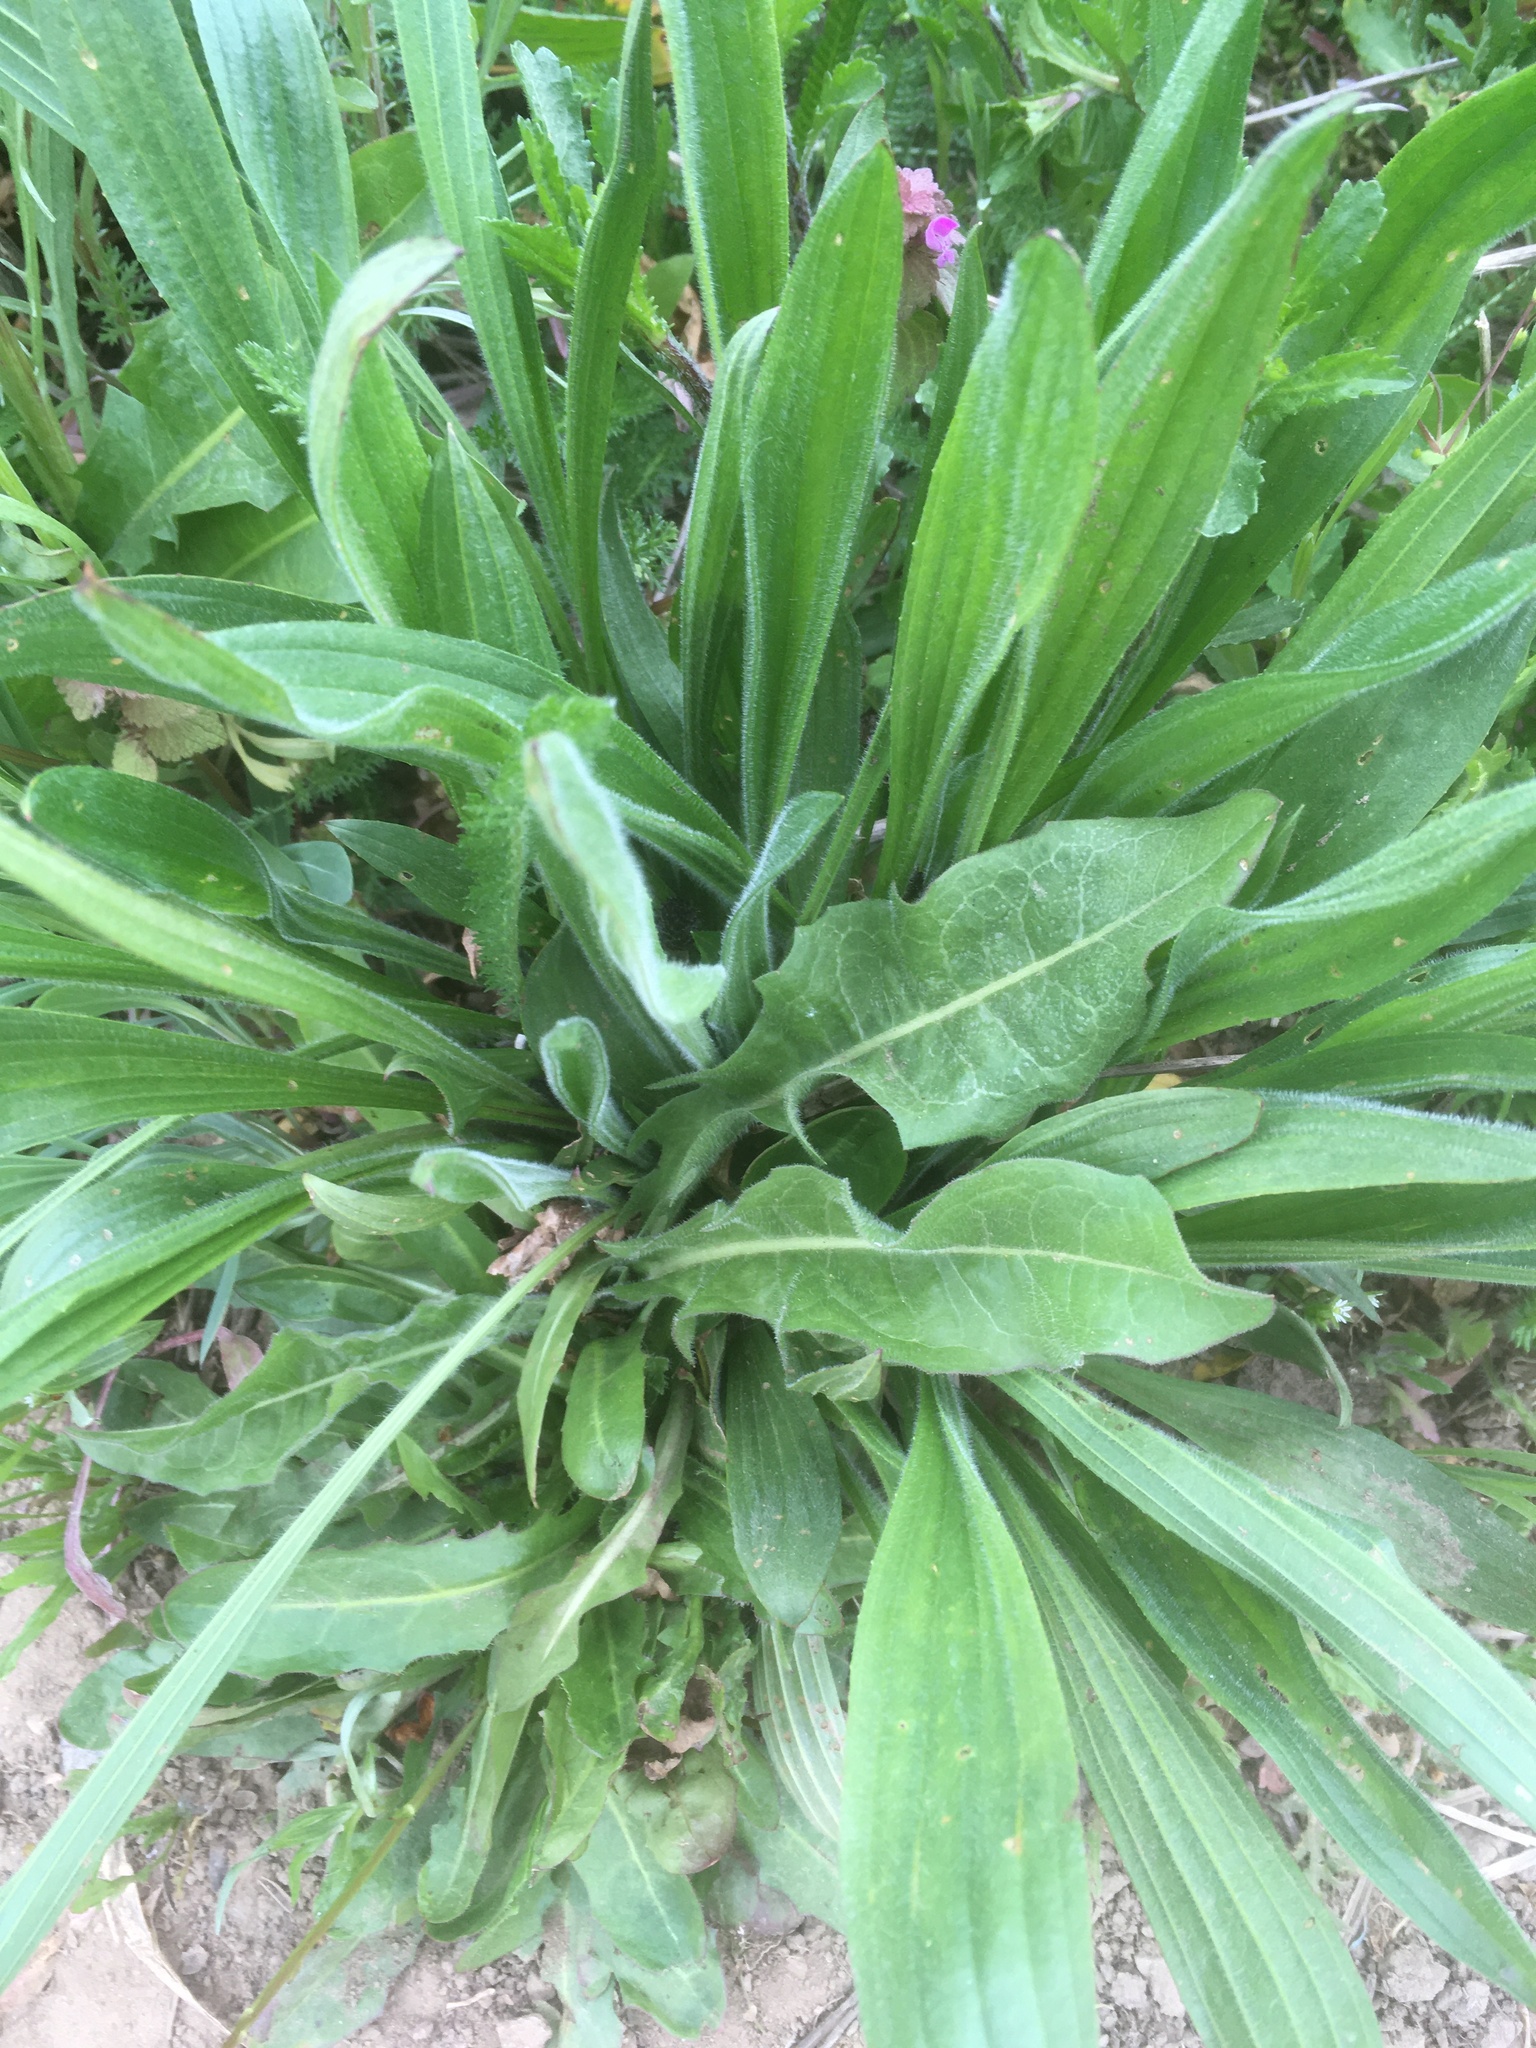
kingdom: Plantae
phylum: Tracheophyta
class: Magnoliopsida
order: Lamiales
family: Plantaginaceae
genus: Plantago
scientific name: Plantago lanceolata
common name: Ribwort plantain
